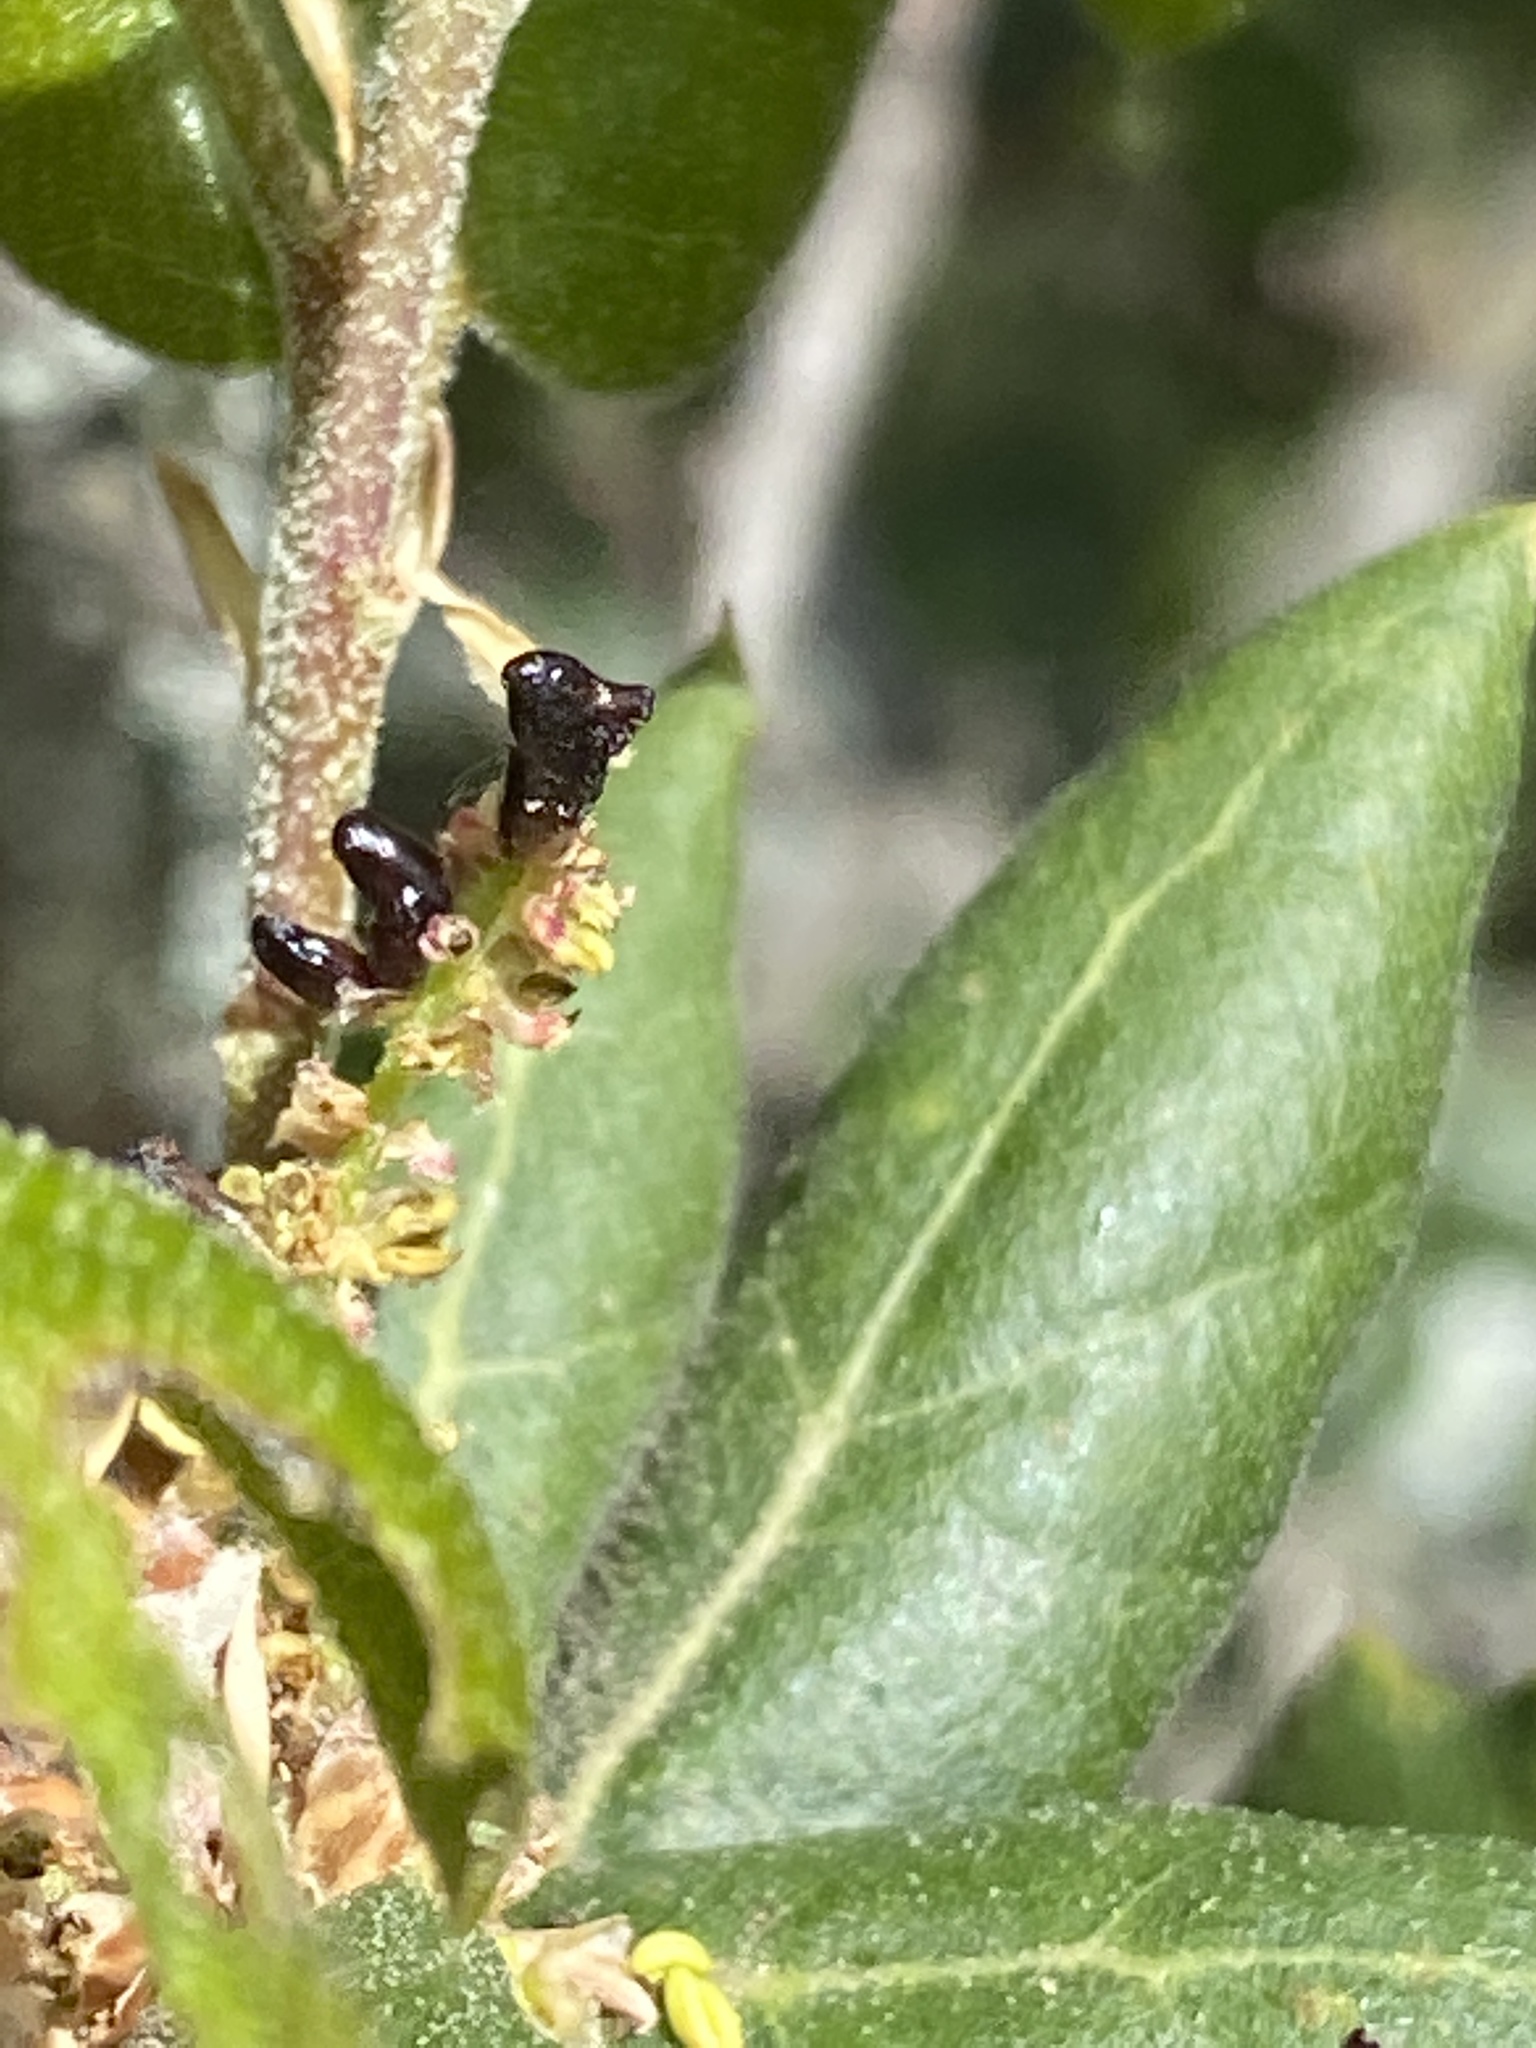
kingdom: Animalia
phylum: Arthropoda
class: Insecta
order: Hymenoptera
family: Cynipidae
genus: Dryocosmus
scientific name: Dryocosmus
